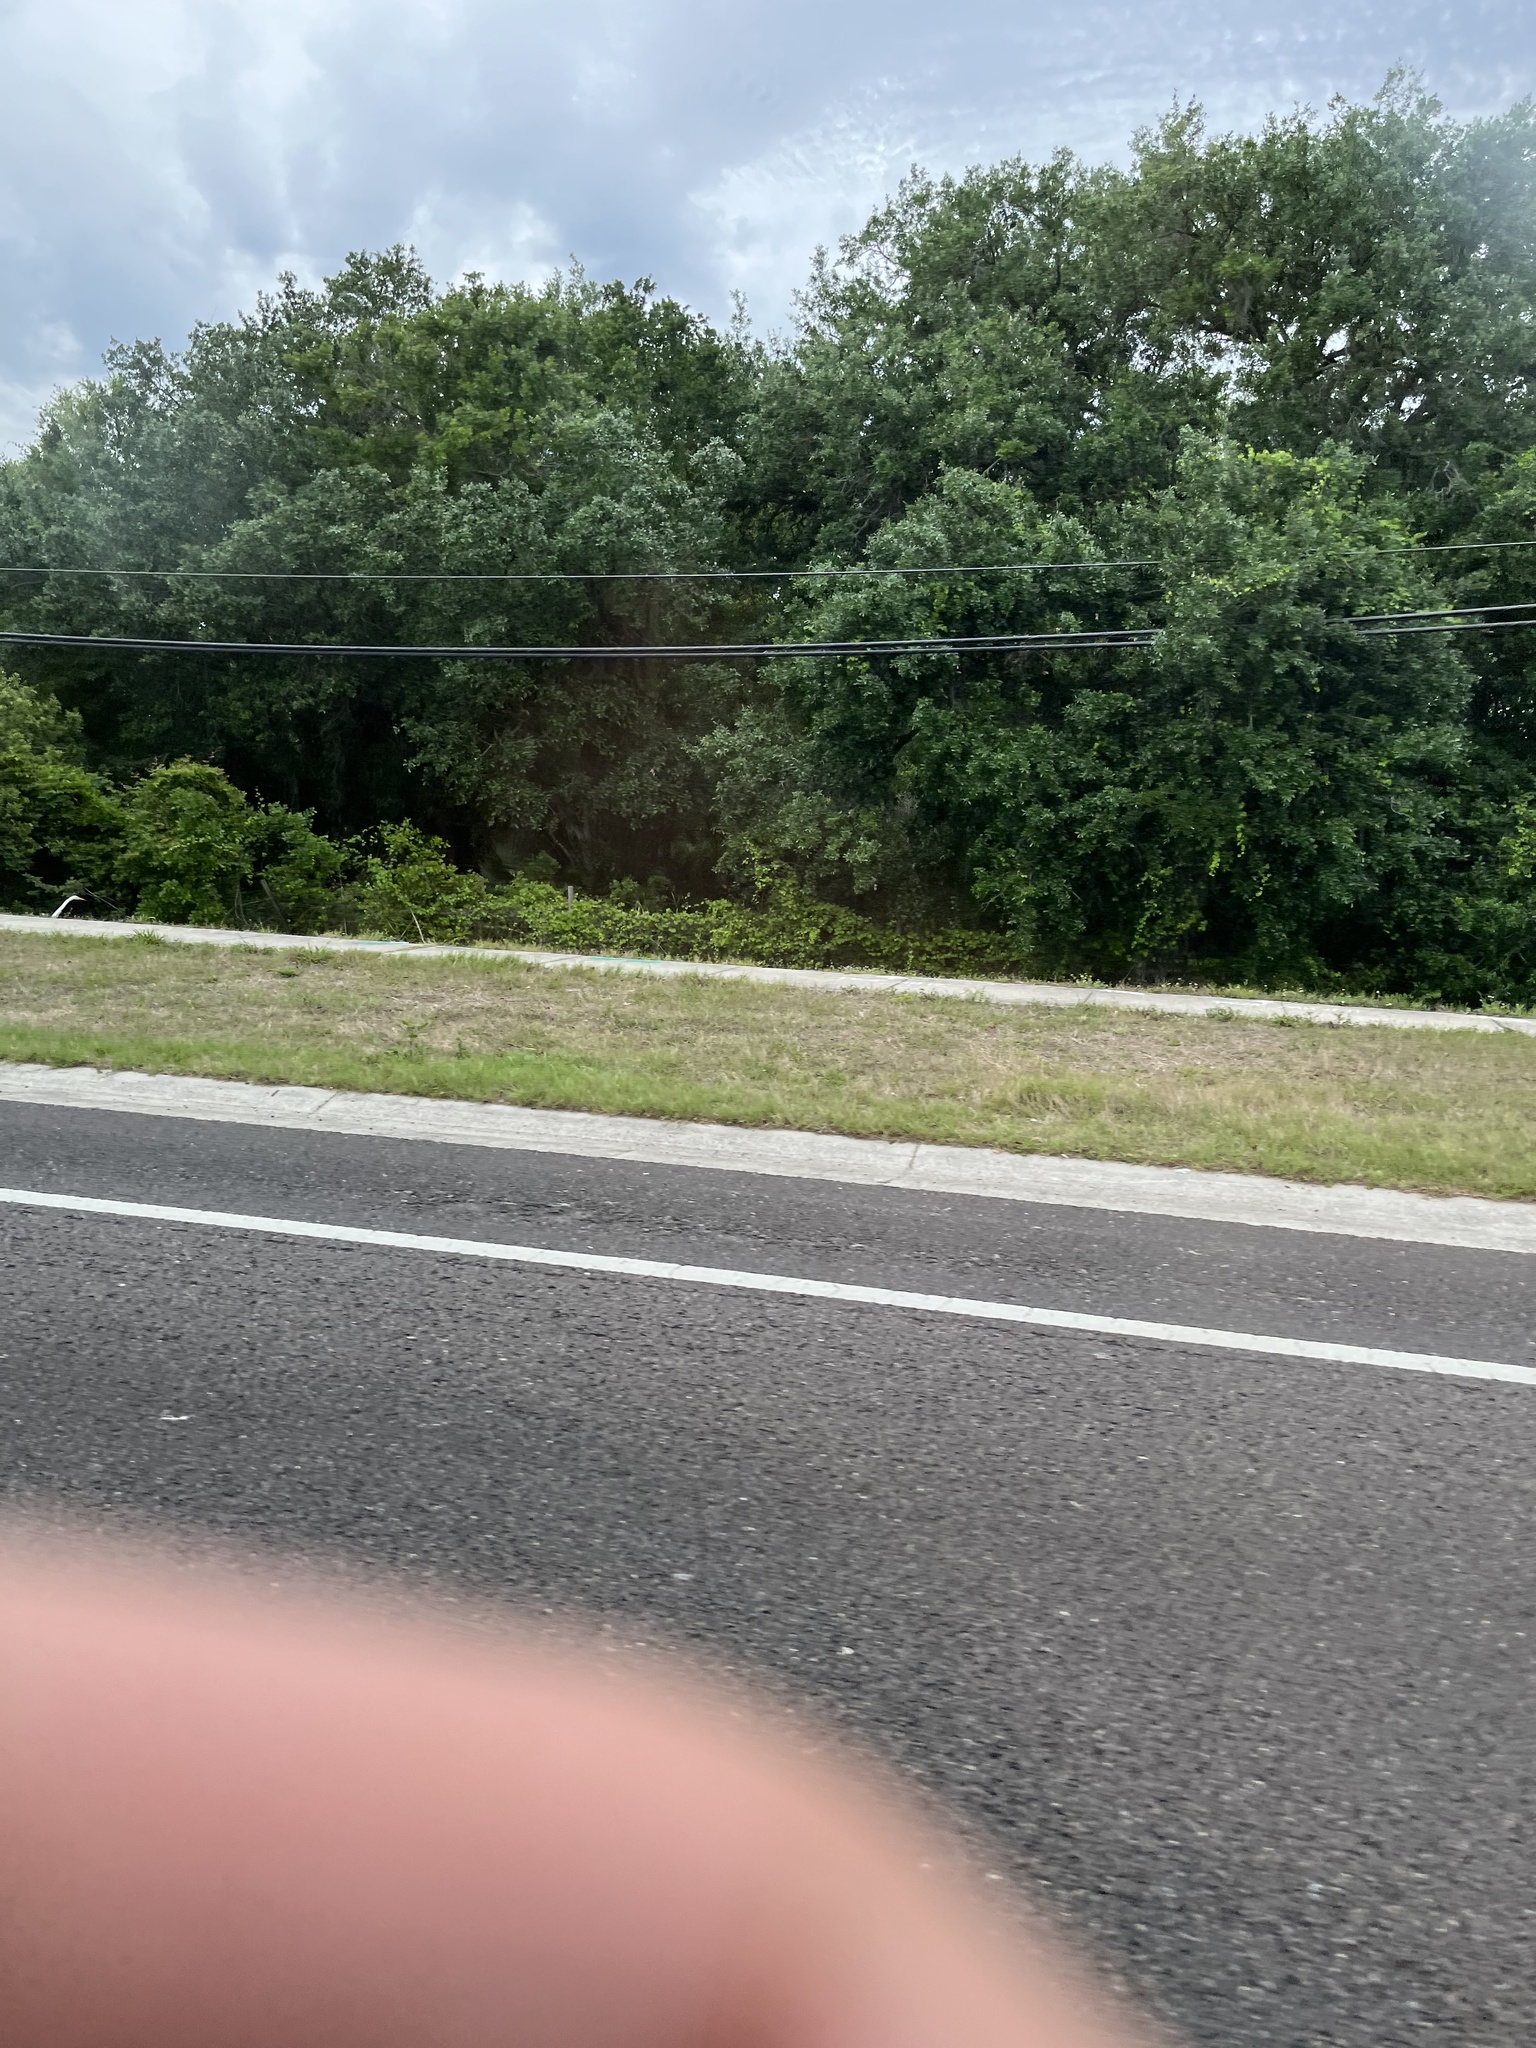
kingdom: Animalia
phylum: Chordata
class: Aves
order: Pelecaniformes
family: Ardeidae
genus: Ardea
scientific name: Ardea alba
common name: Great egret
